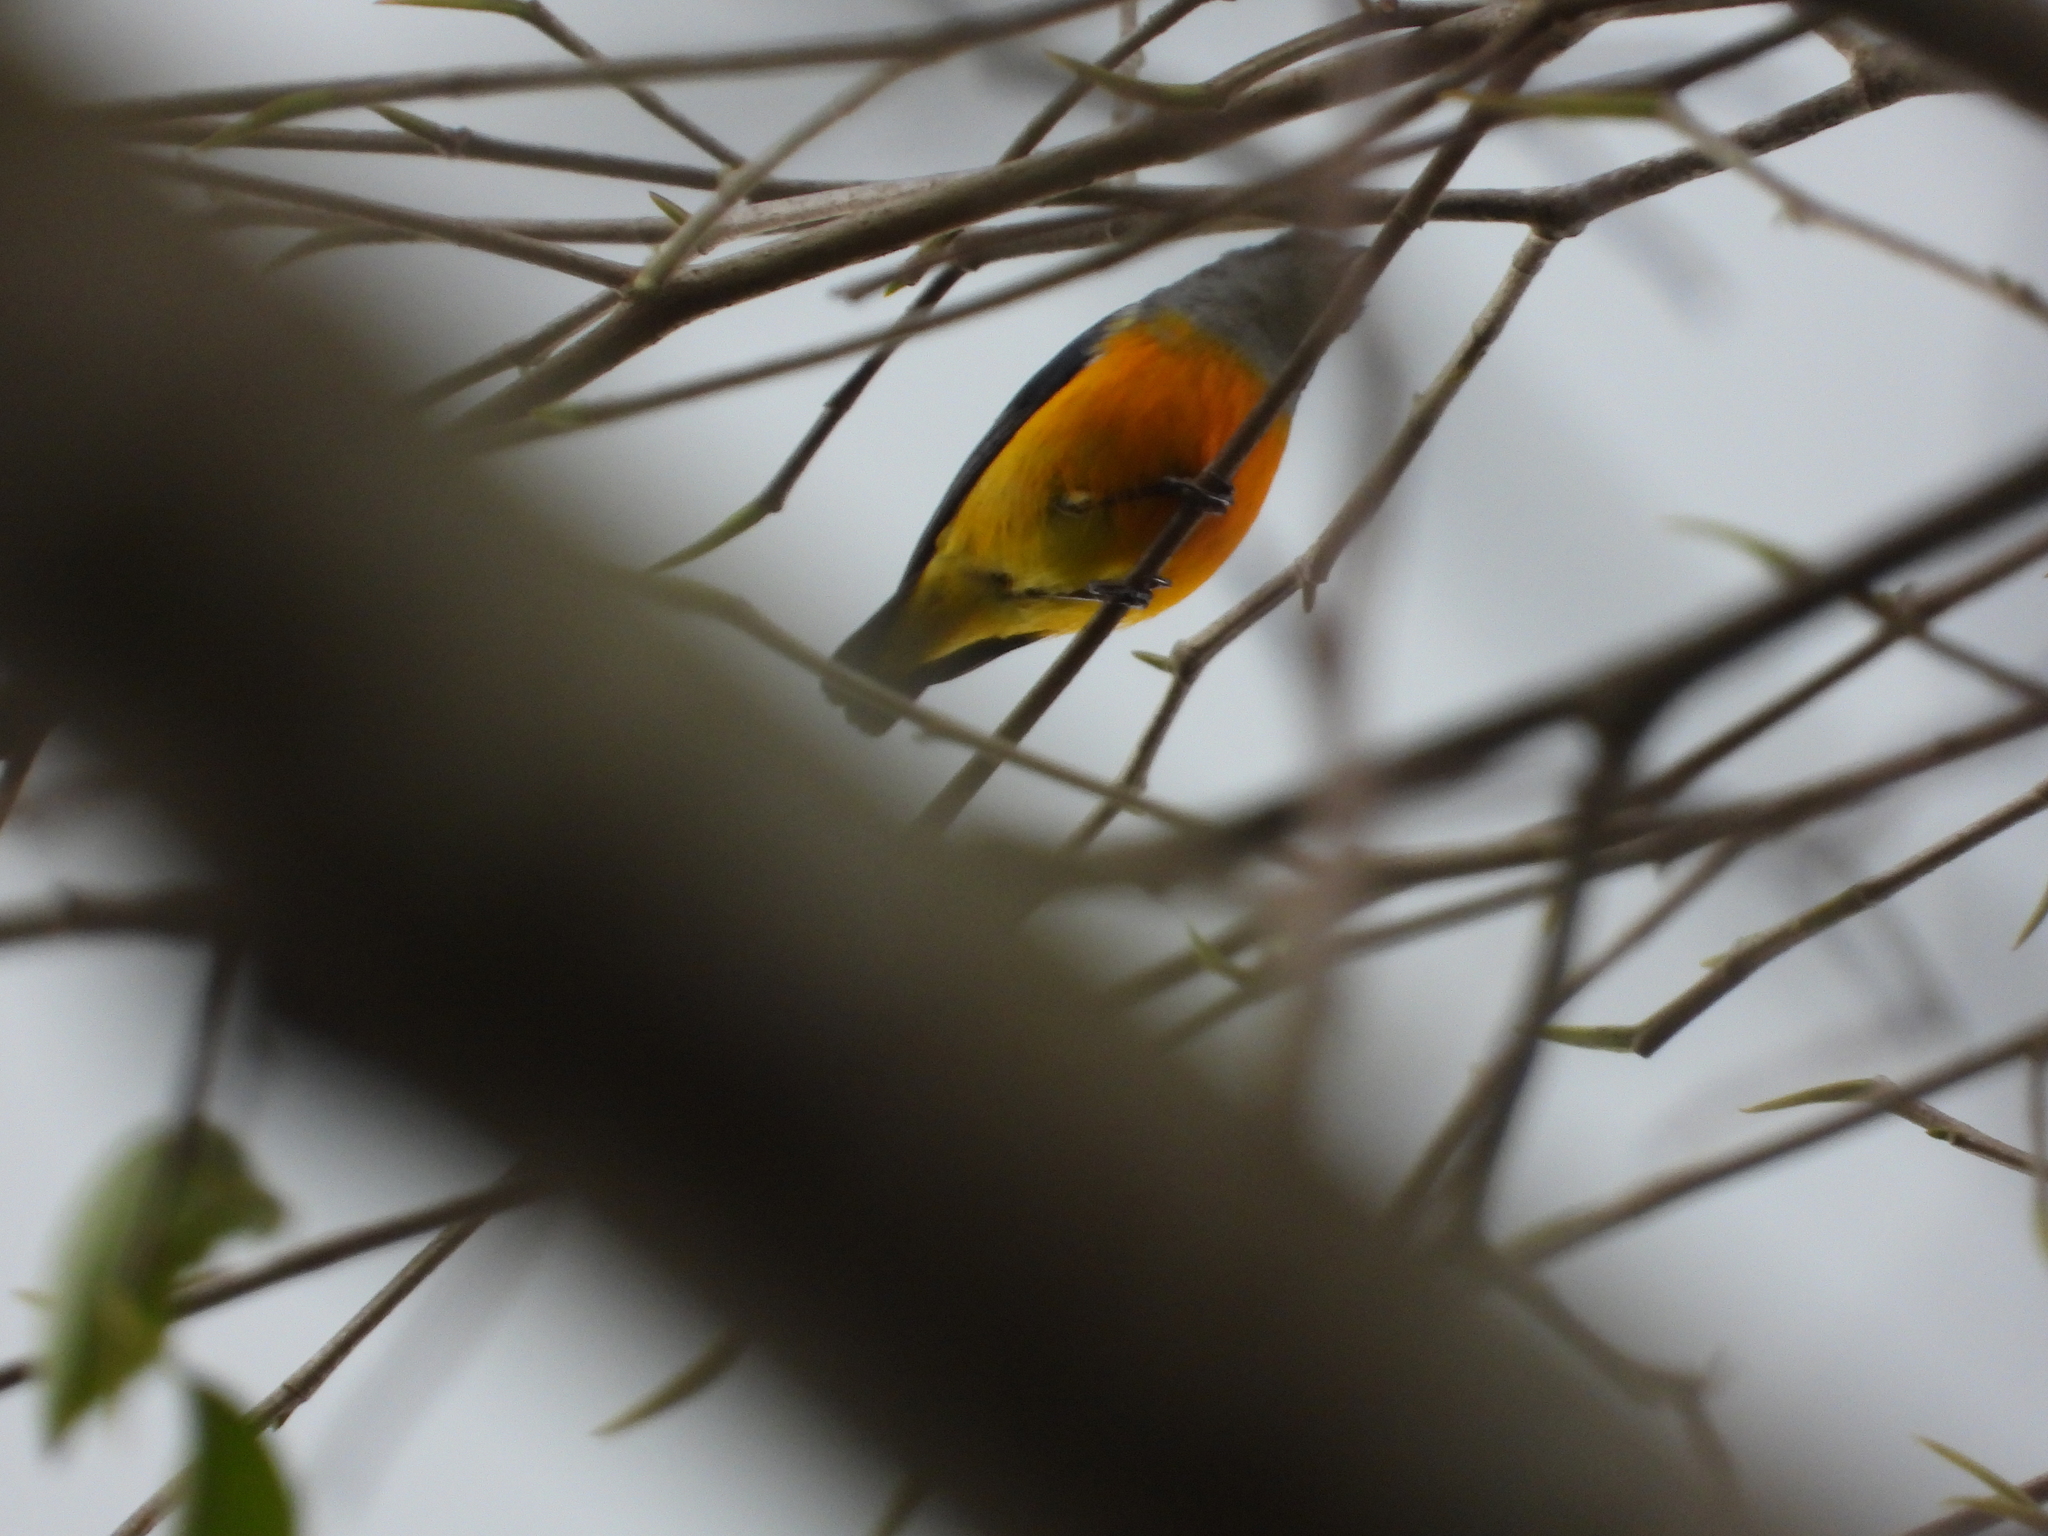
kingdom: Animalia
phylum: Chordata
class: Aves
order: Passeriformes
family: Dicaeidae
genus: Dicaeum
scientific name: Dicaeum trigonostigma
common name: Orange-bellied flowerpecker
